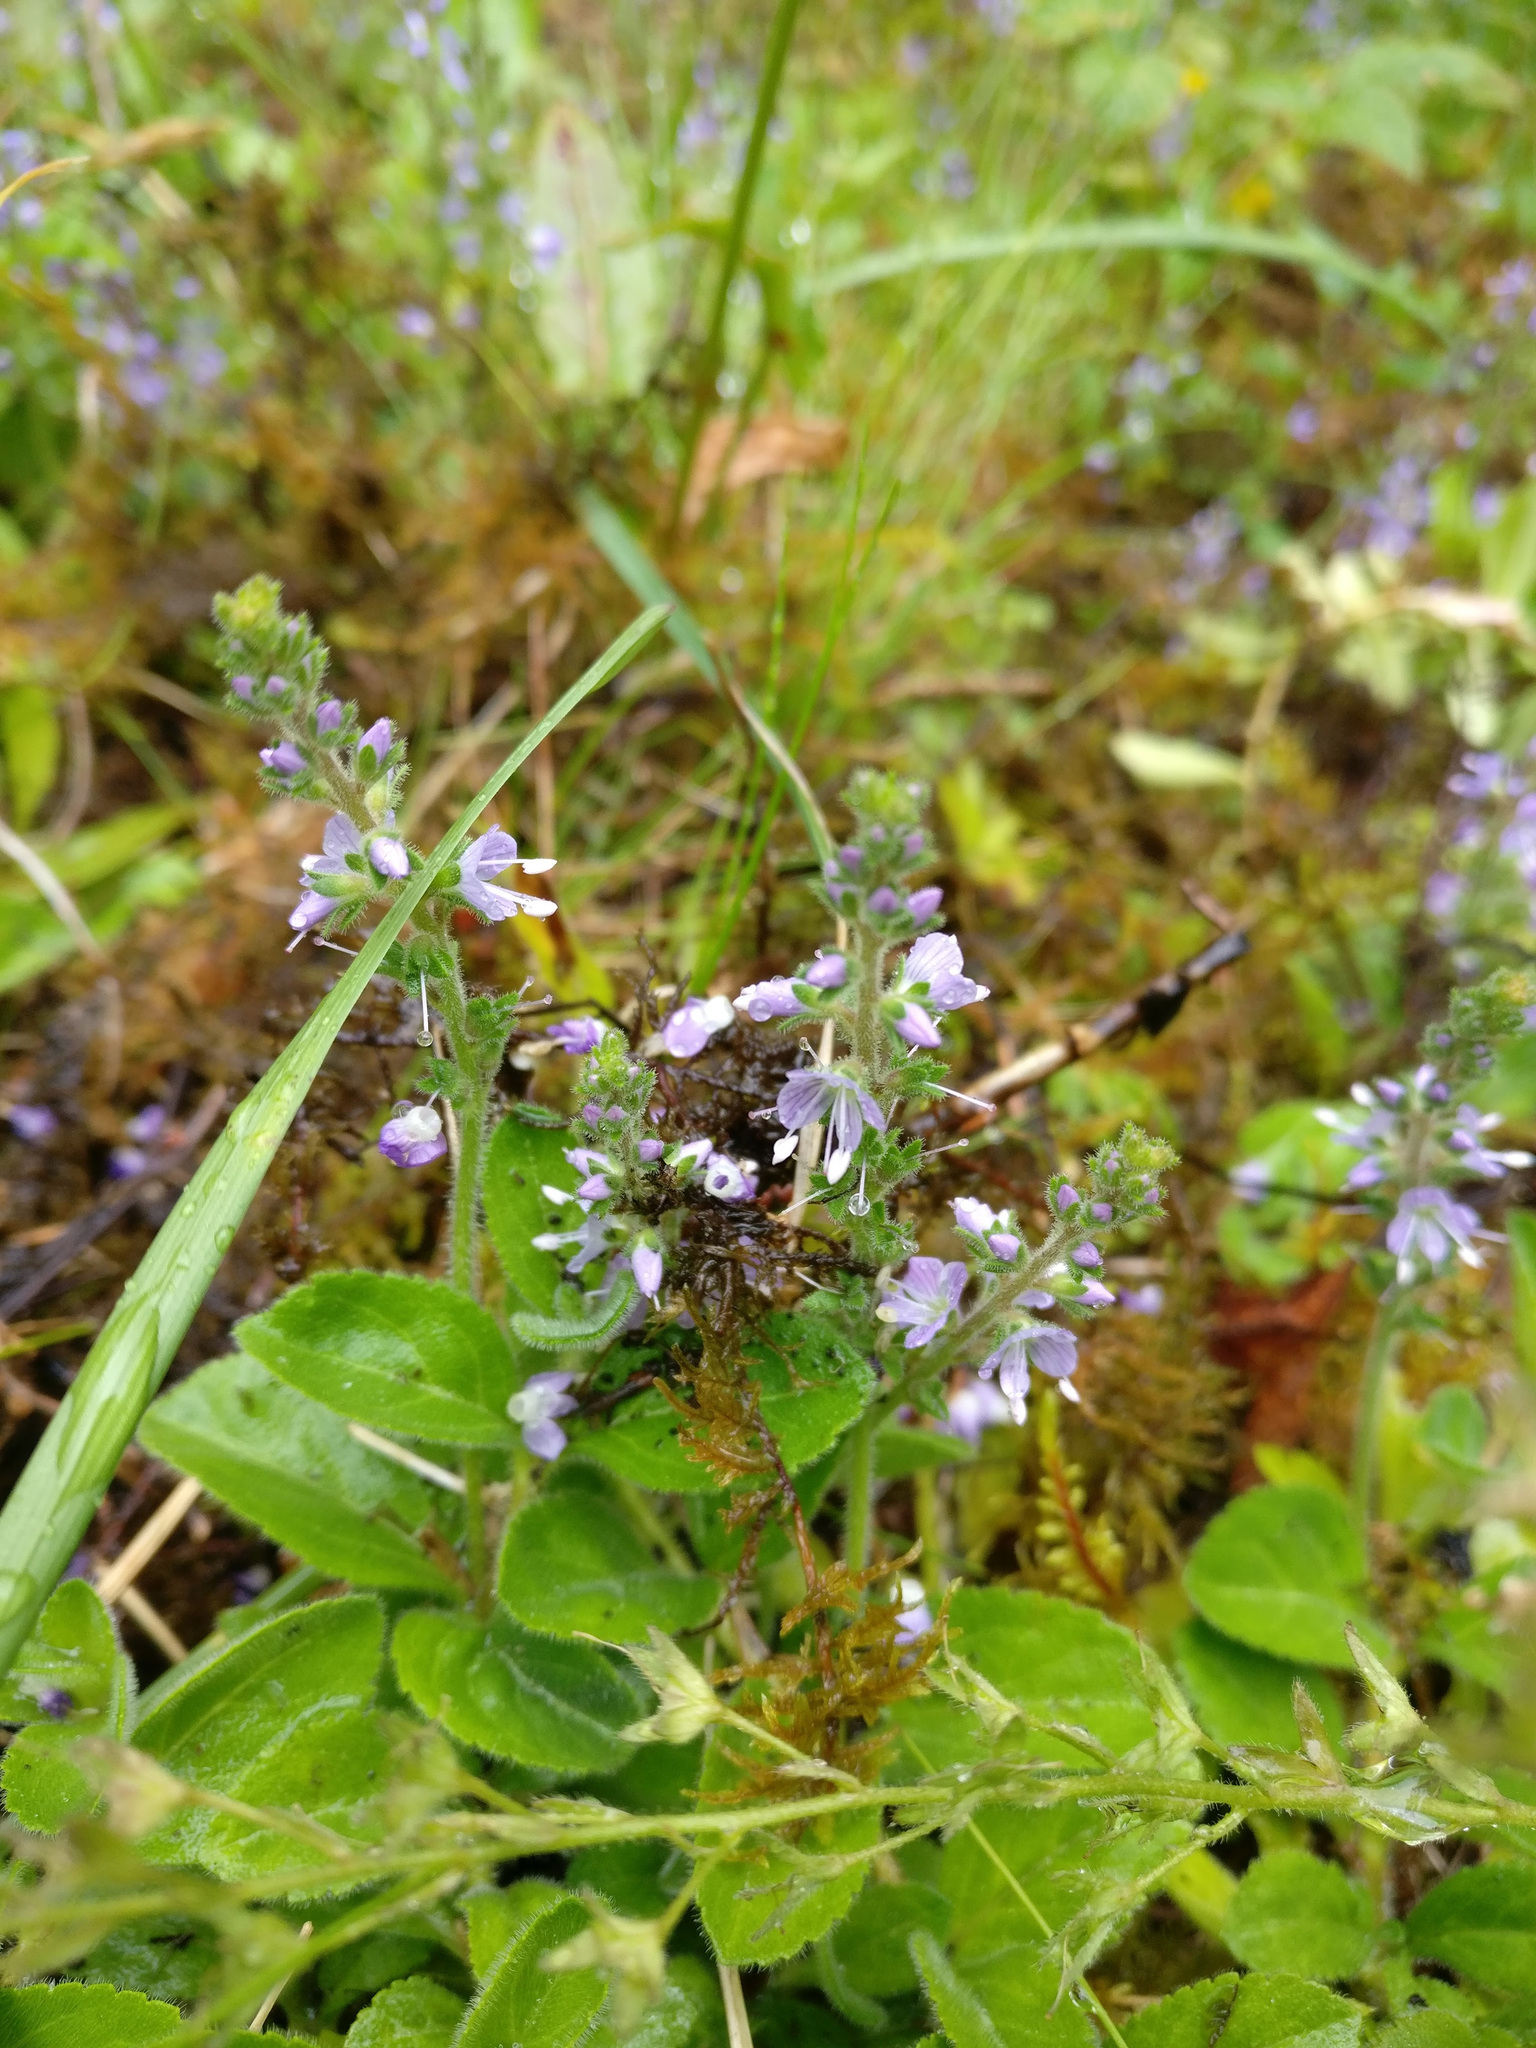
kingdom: Plantae
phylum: Tracheophyta
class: Magnoliopsida
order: Lamiales
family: Plantaginaceae
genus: Veronica
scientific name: Veronica officinalis
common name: Common speedwell
